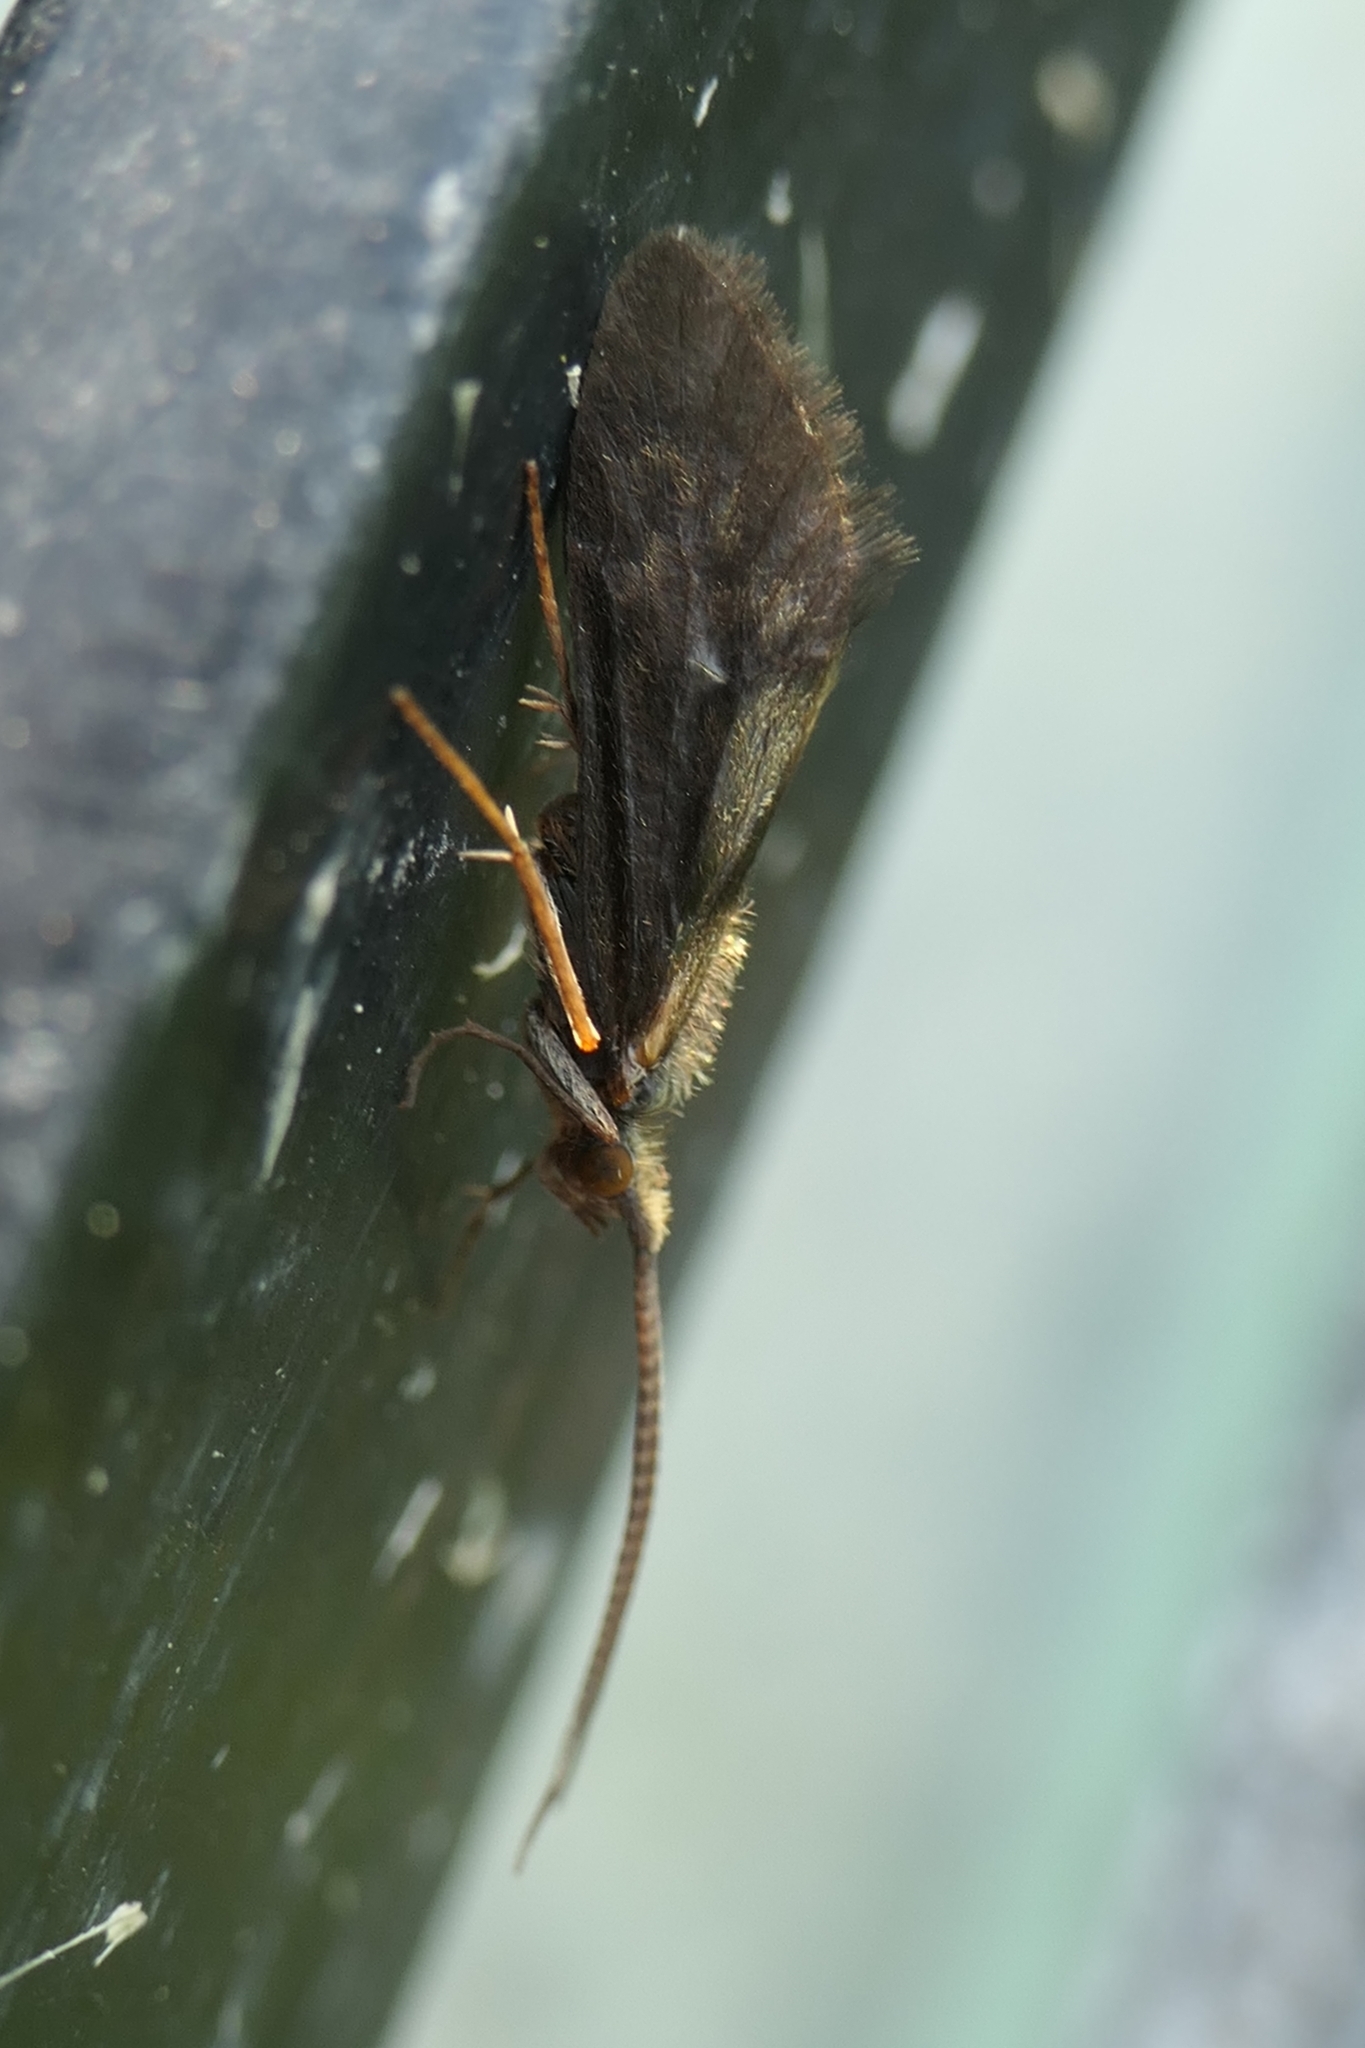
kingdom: Animalia
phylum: Arthropoda
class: Insecta
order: Trichoptera
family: Conoesucidae
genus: Pycnocentrodes
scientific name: Pycnocentrodes aureolus
